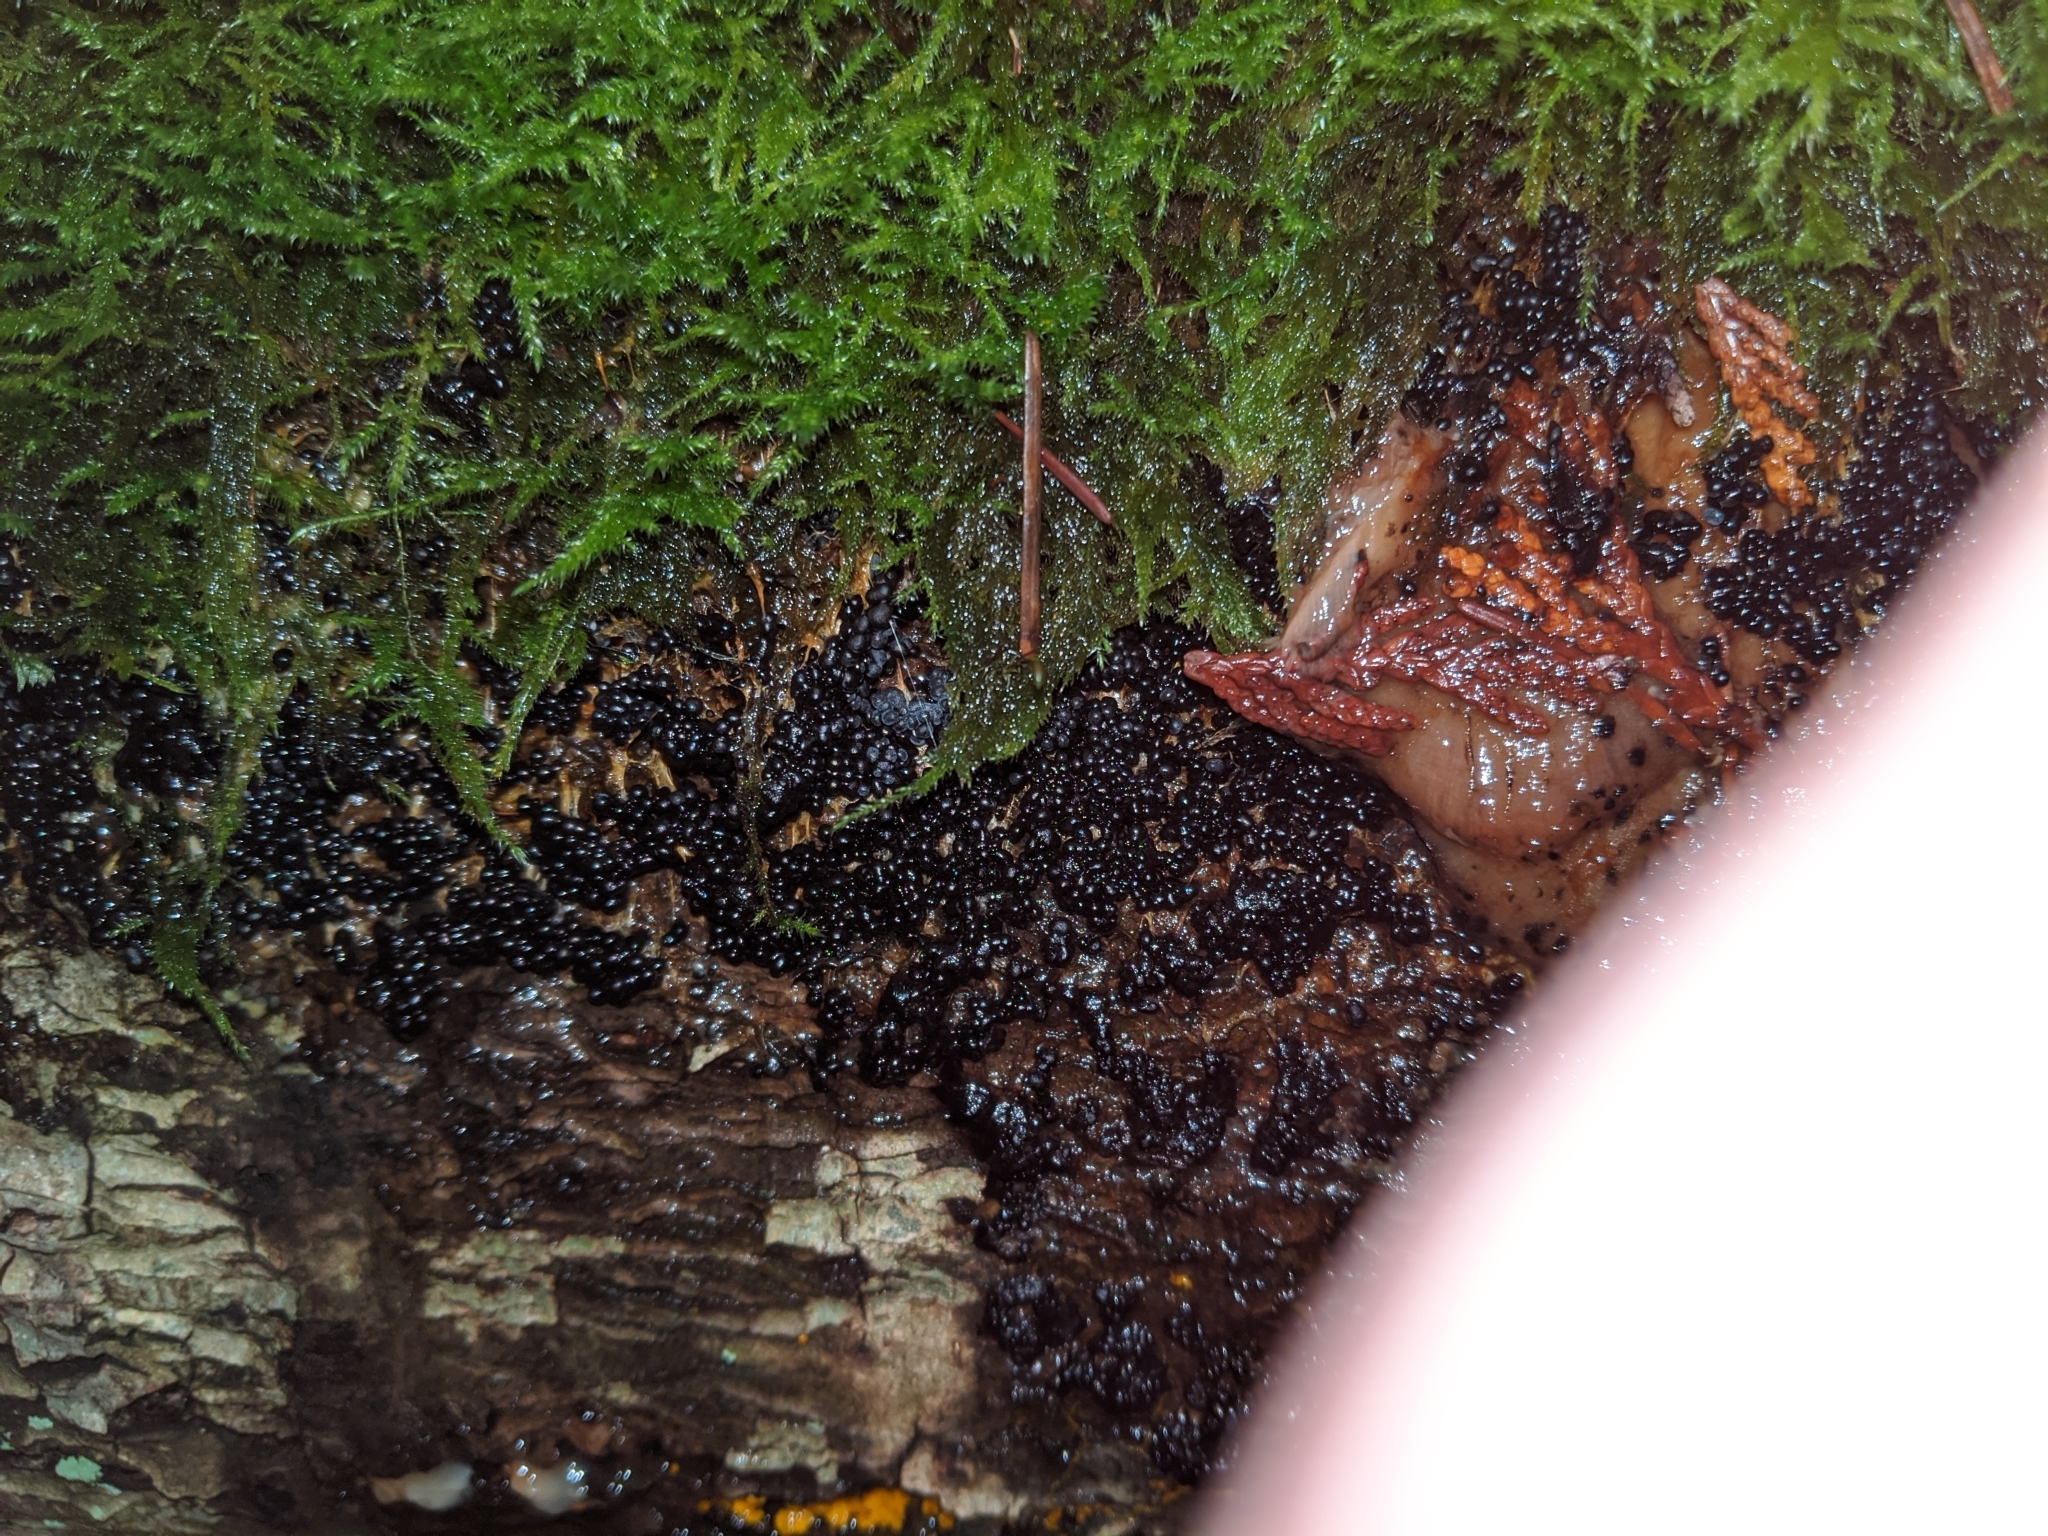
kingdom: Protozoa
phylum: Mycetozoa
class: Myxomycetes
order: Physarales
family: Physaraceae
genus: Badhamia
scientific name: Badhamia utricularis
